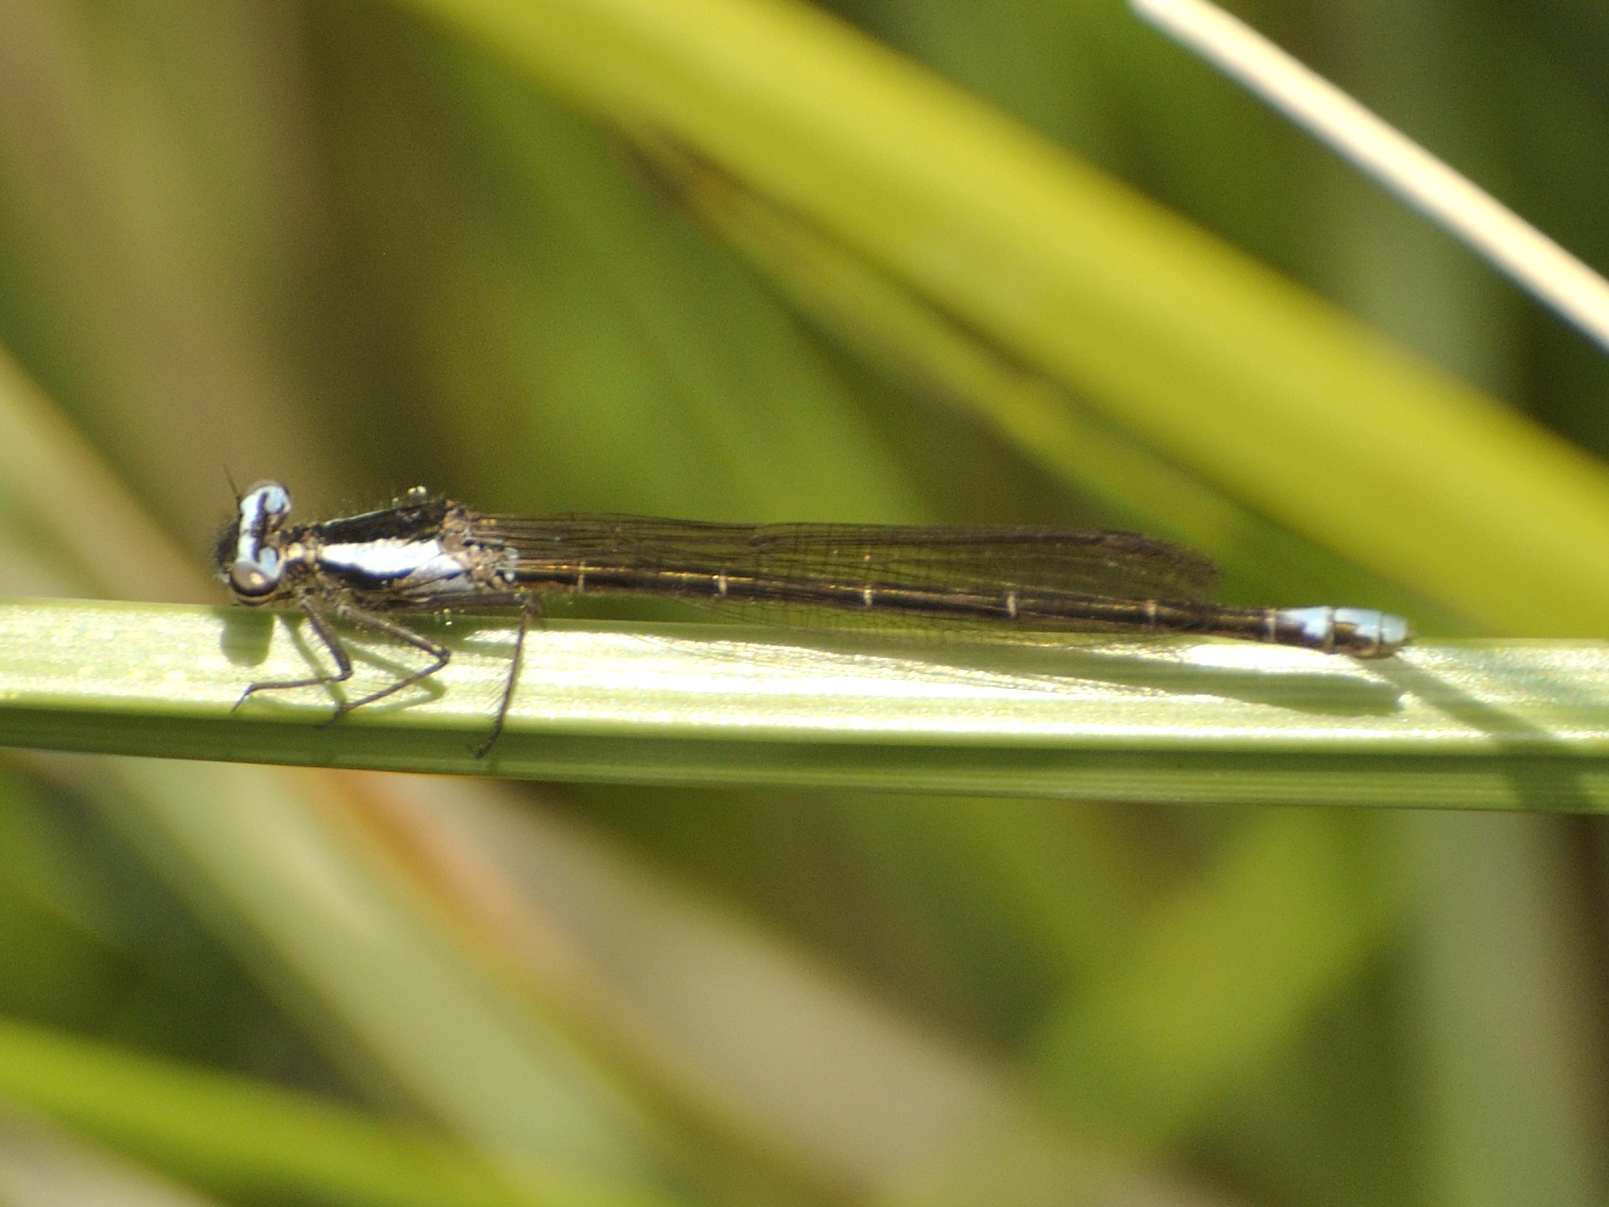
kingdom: Animalia
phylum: Arthropoda
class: Insecta
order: Odonata
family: Platycnemididae
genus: Spesbona
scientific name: Spesbona angusta
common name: Ceres featherlegs
